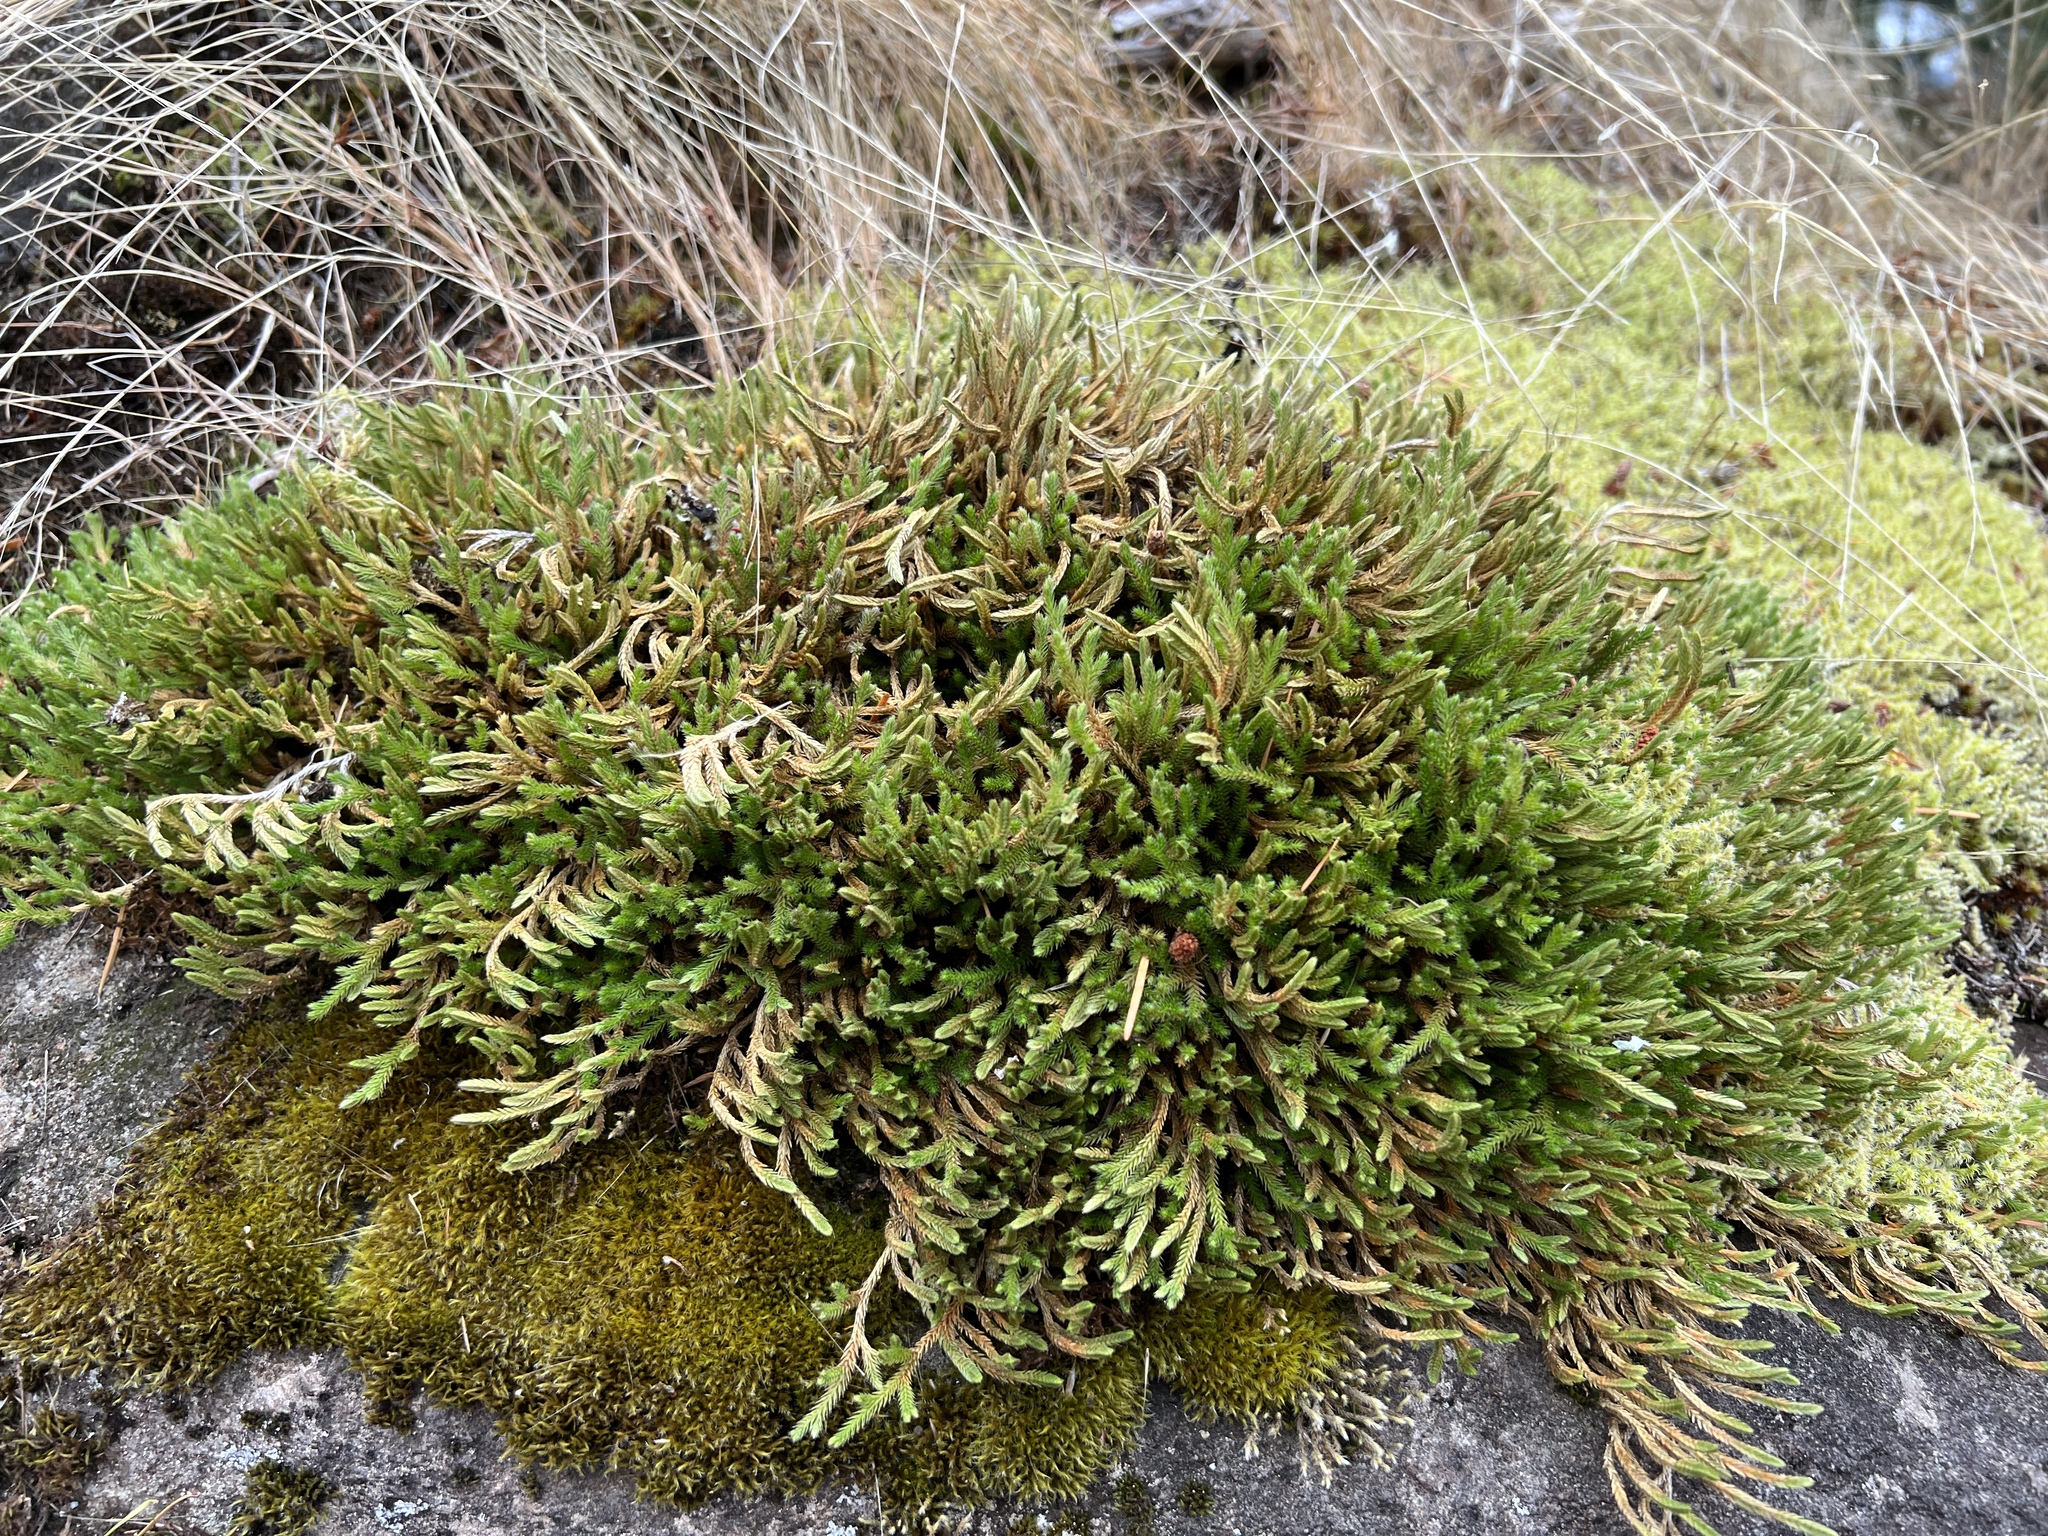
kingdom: Plantae
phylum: Tracheophyta
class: Lycopodiopsida
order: Selaginellales
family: Selaginellaceae
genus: Selaginella
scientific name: Selaginella wallacei
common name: Wallace's selaginella
